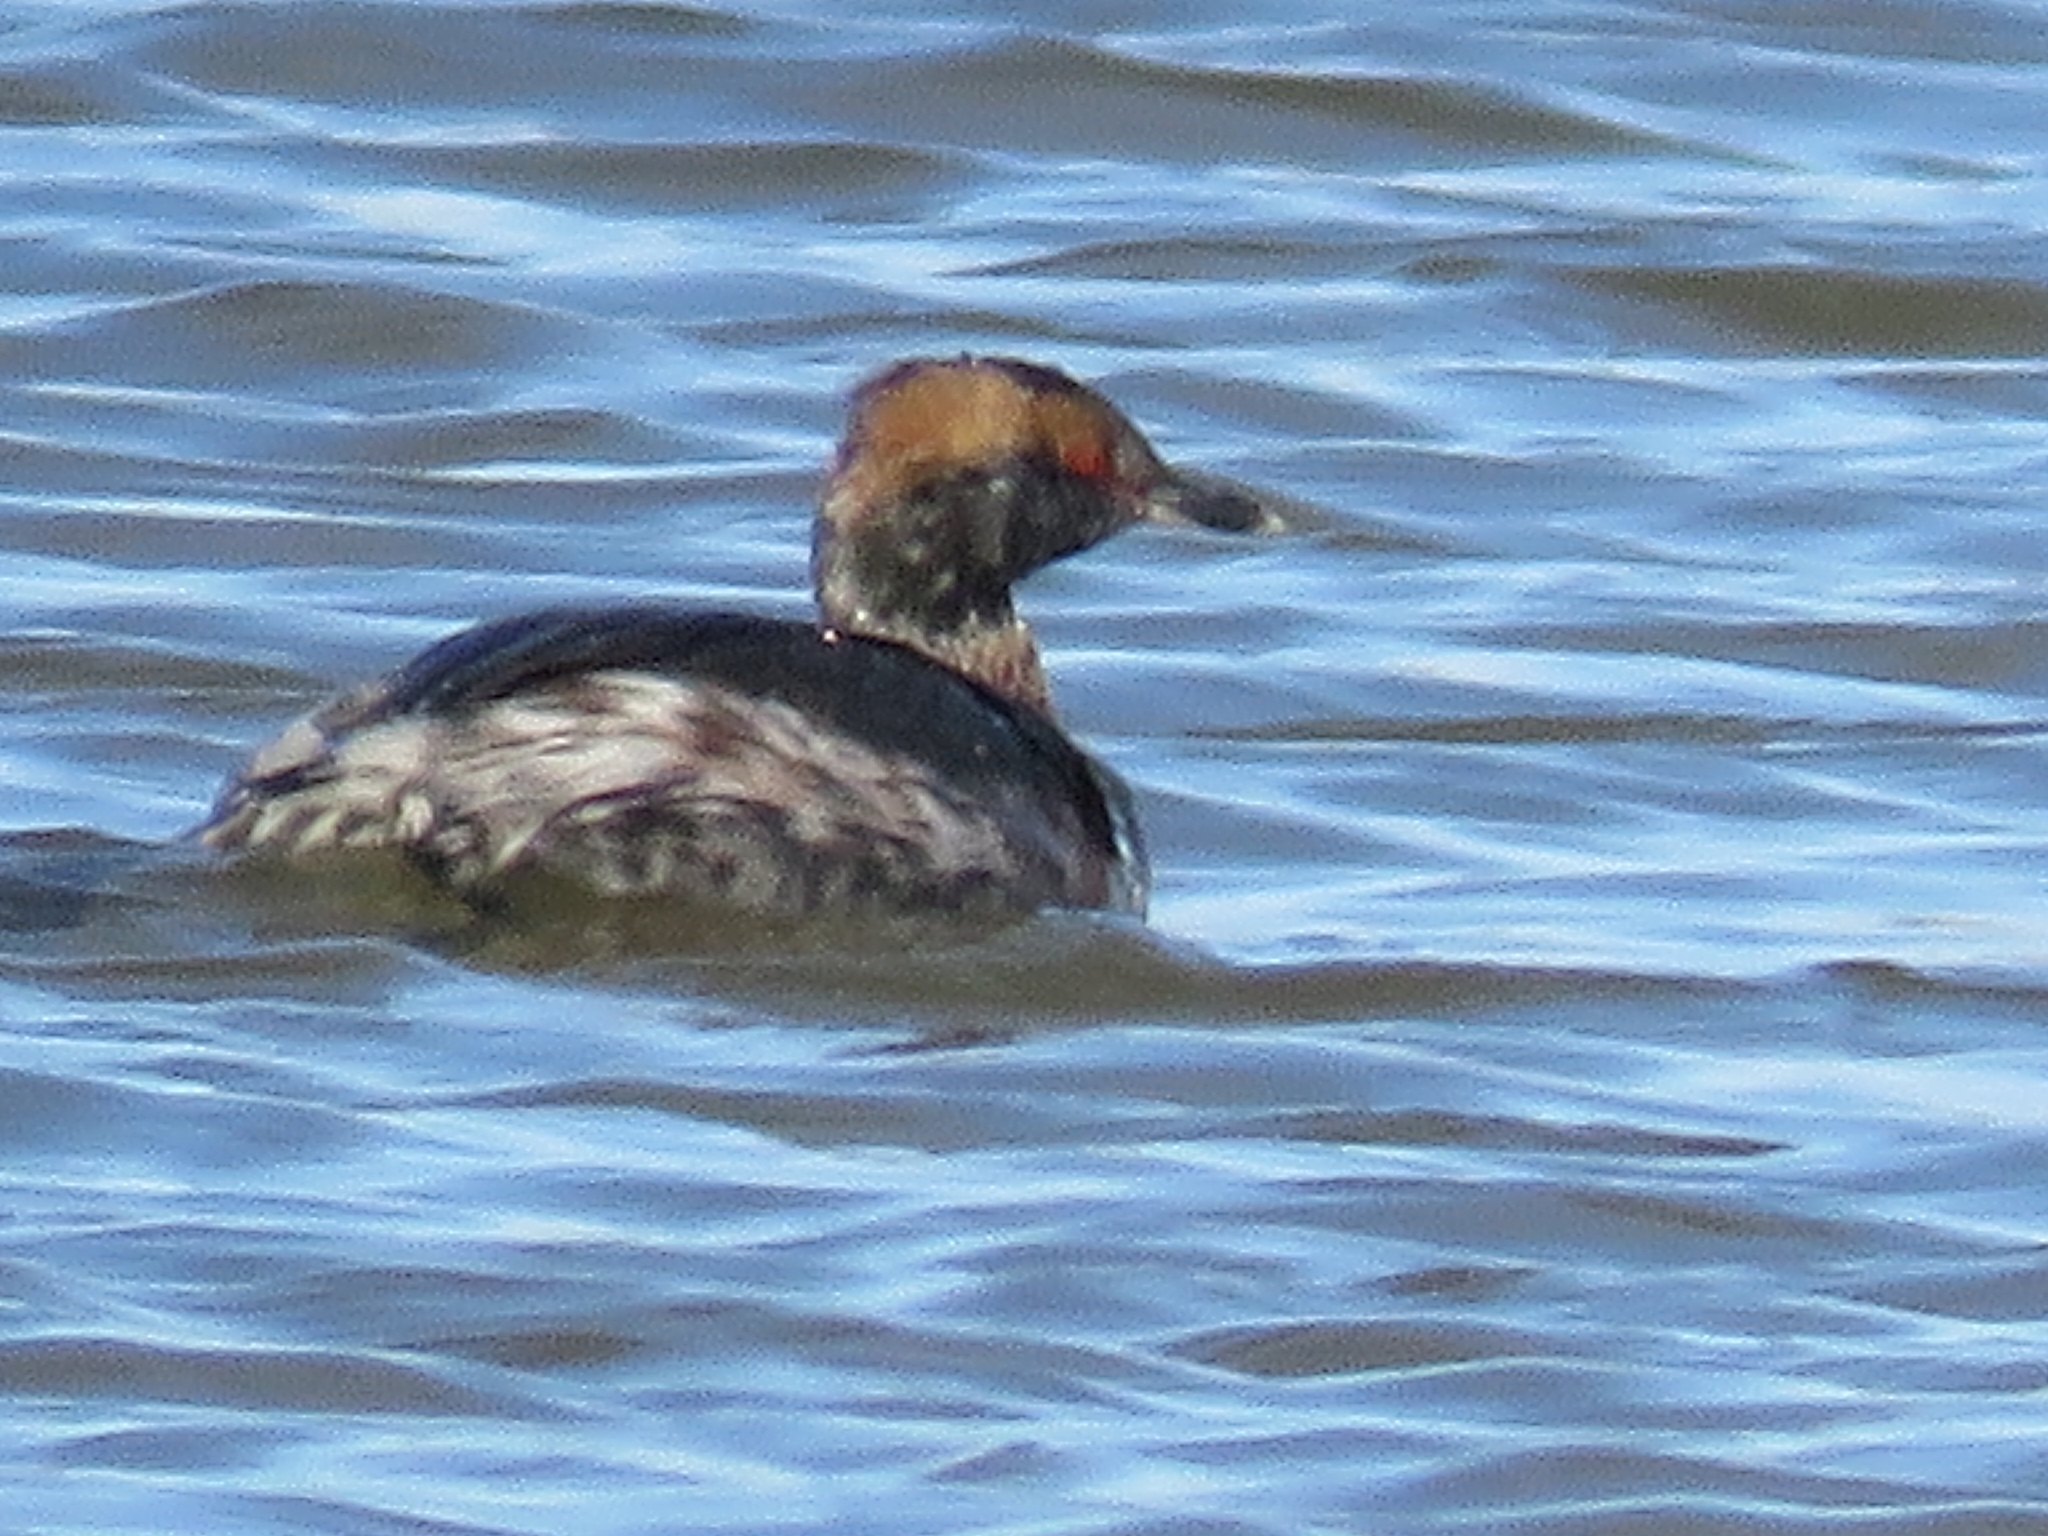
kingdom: Animalia
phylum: Chordata
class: Aves
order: Podicipediformes
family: Podicipedidae
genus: Podiceps
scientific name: Podiceps auritus
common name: Horned grebe
